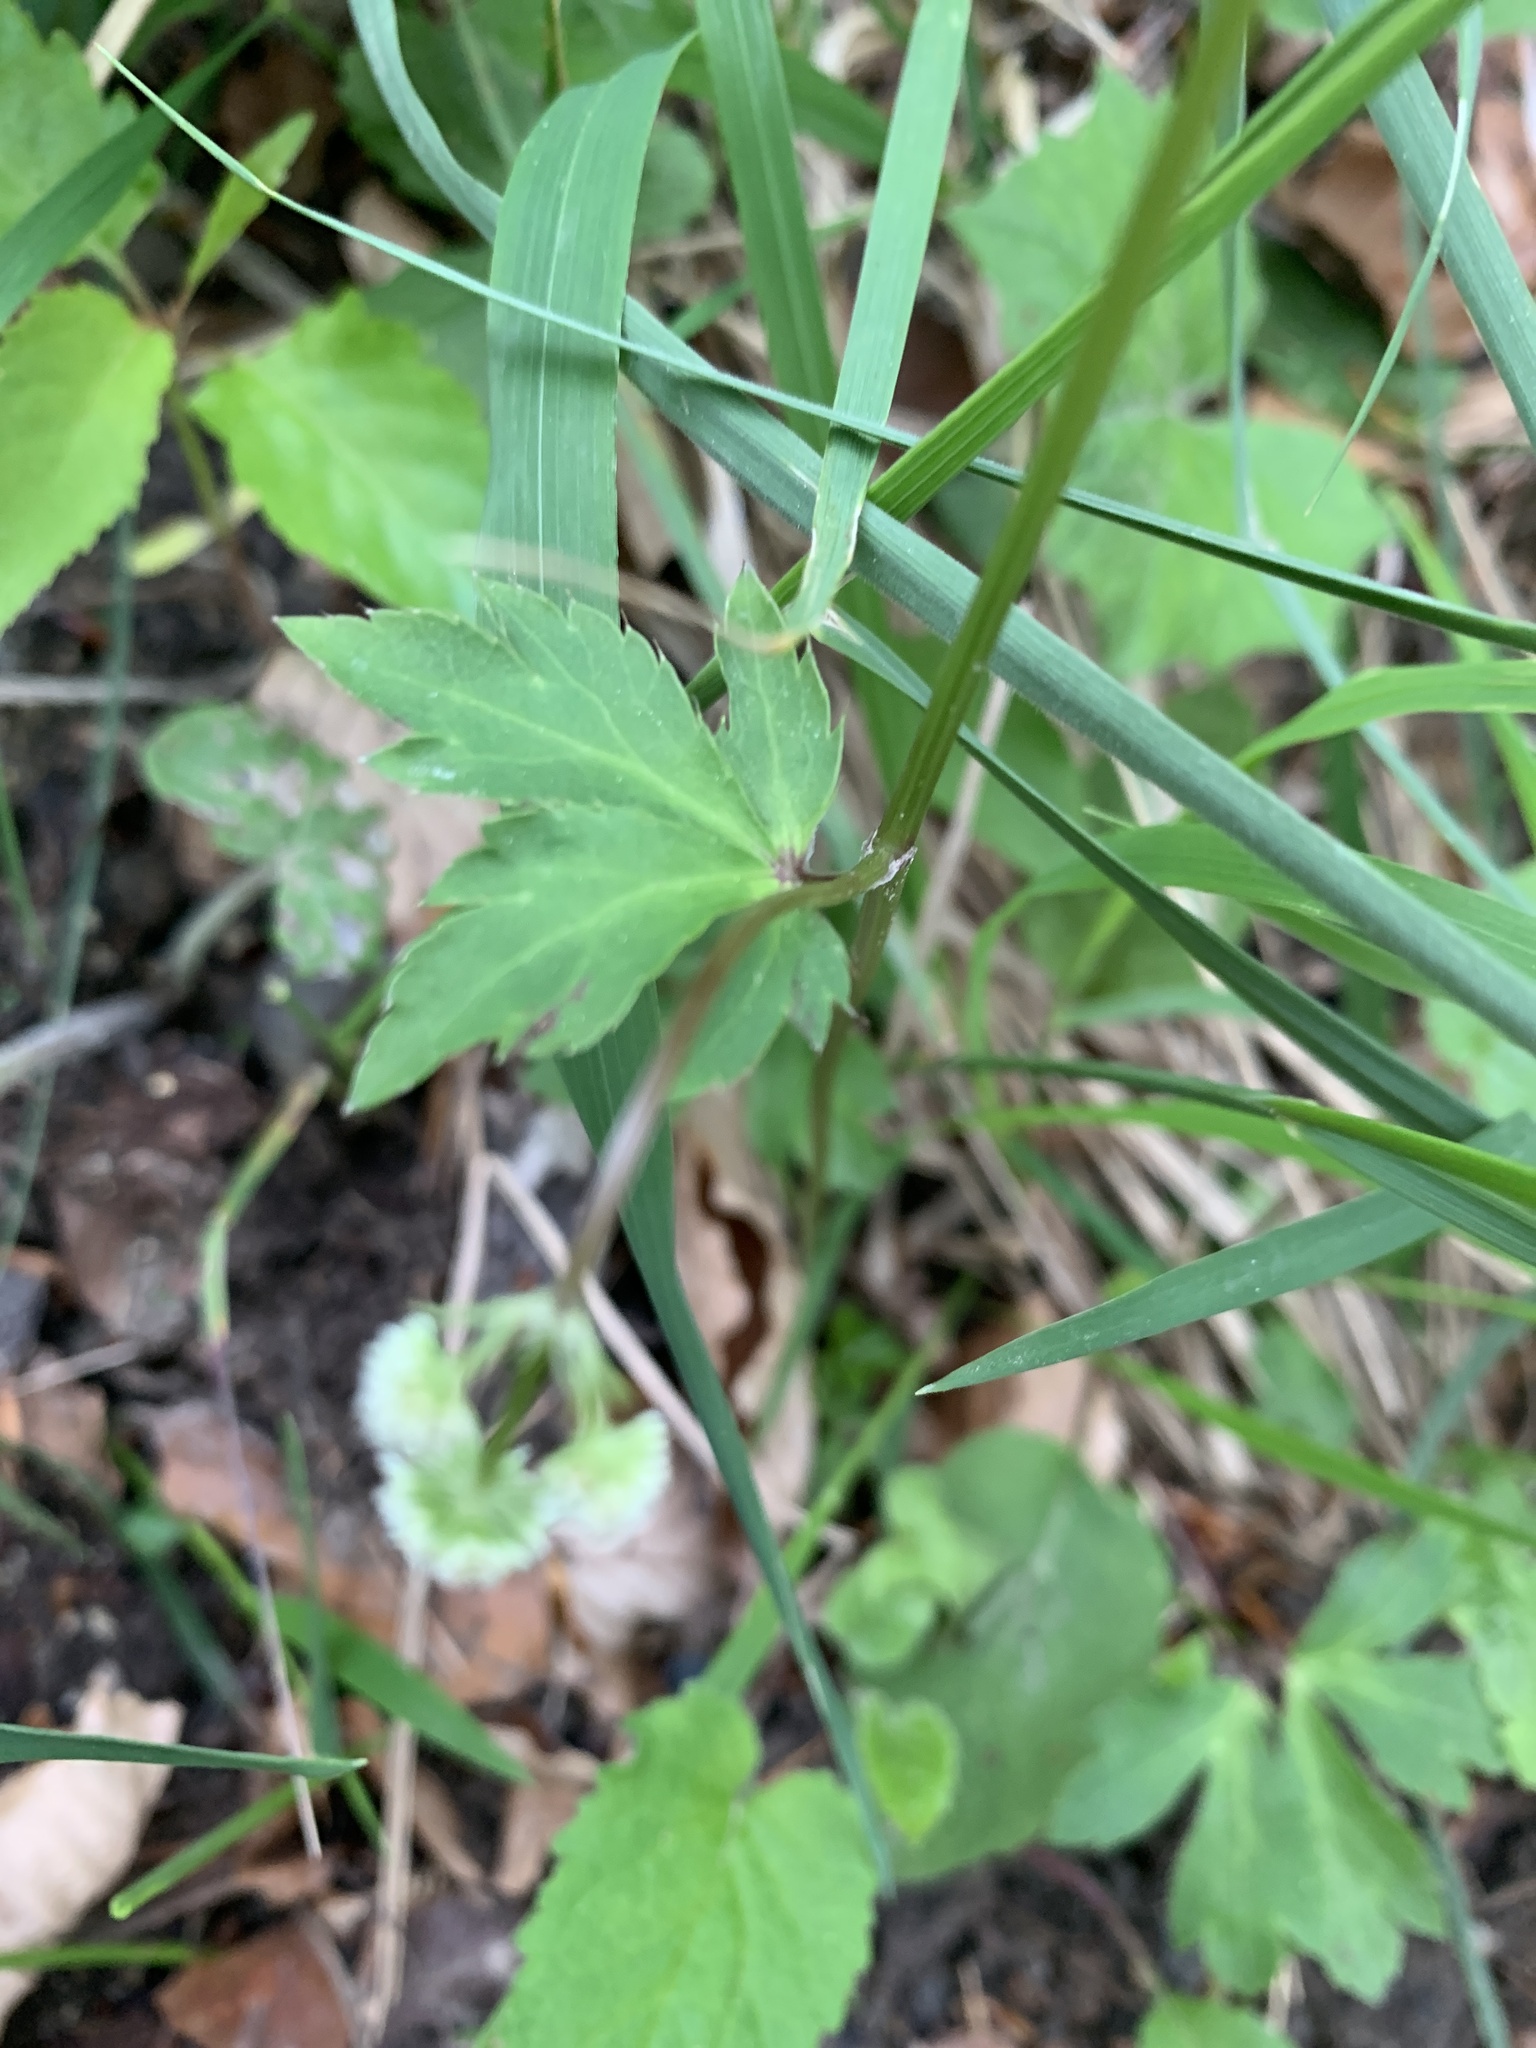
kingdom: Plantae
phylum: Tracheophyta
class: Magnoliopsida
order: Apiales
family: Apiaceae
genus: Sanicula
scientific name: Sanicula europaea
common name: Sanicle
